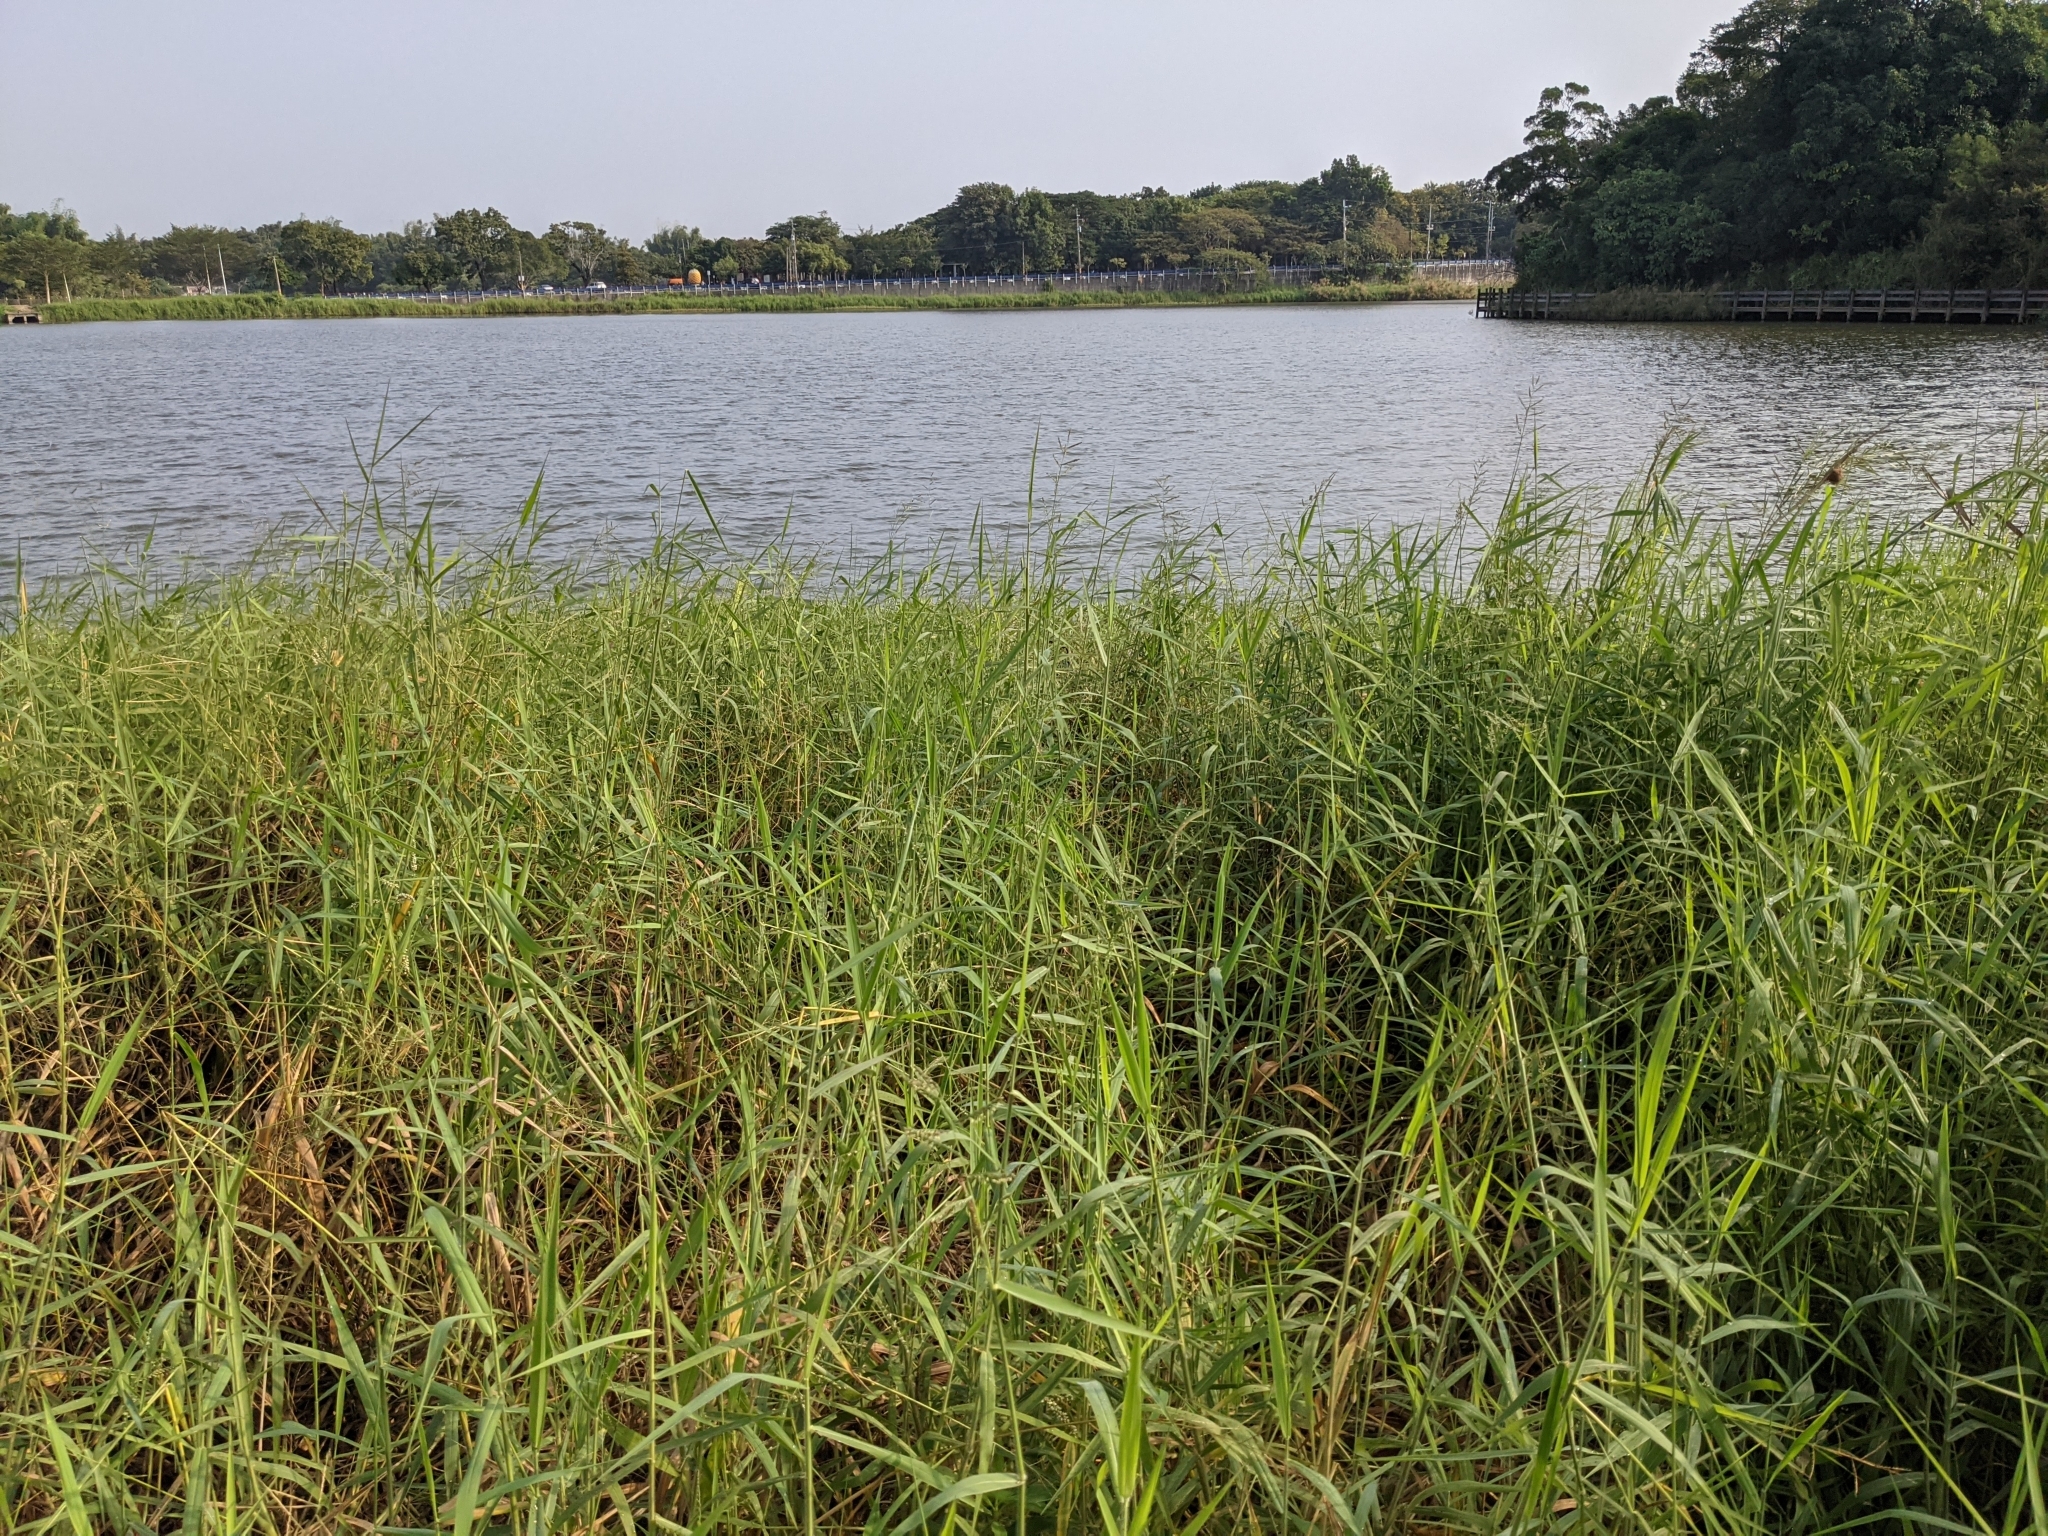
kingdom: Plantae
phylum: Tracheophyta
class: Liliopsida
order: Poales
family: Poaceae
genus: Urochloa
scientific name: Urochloa mutica
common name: Para grass
